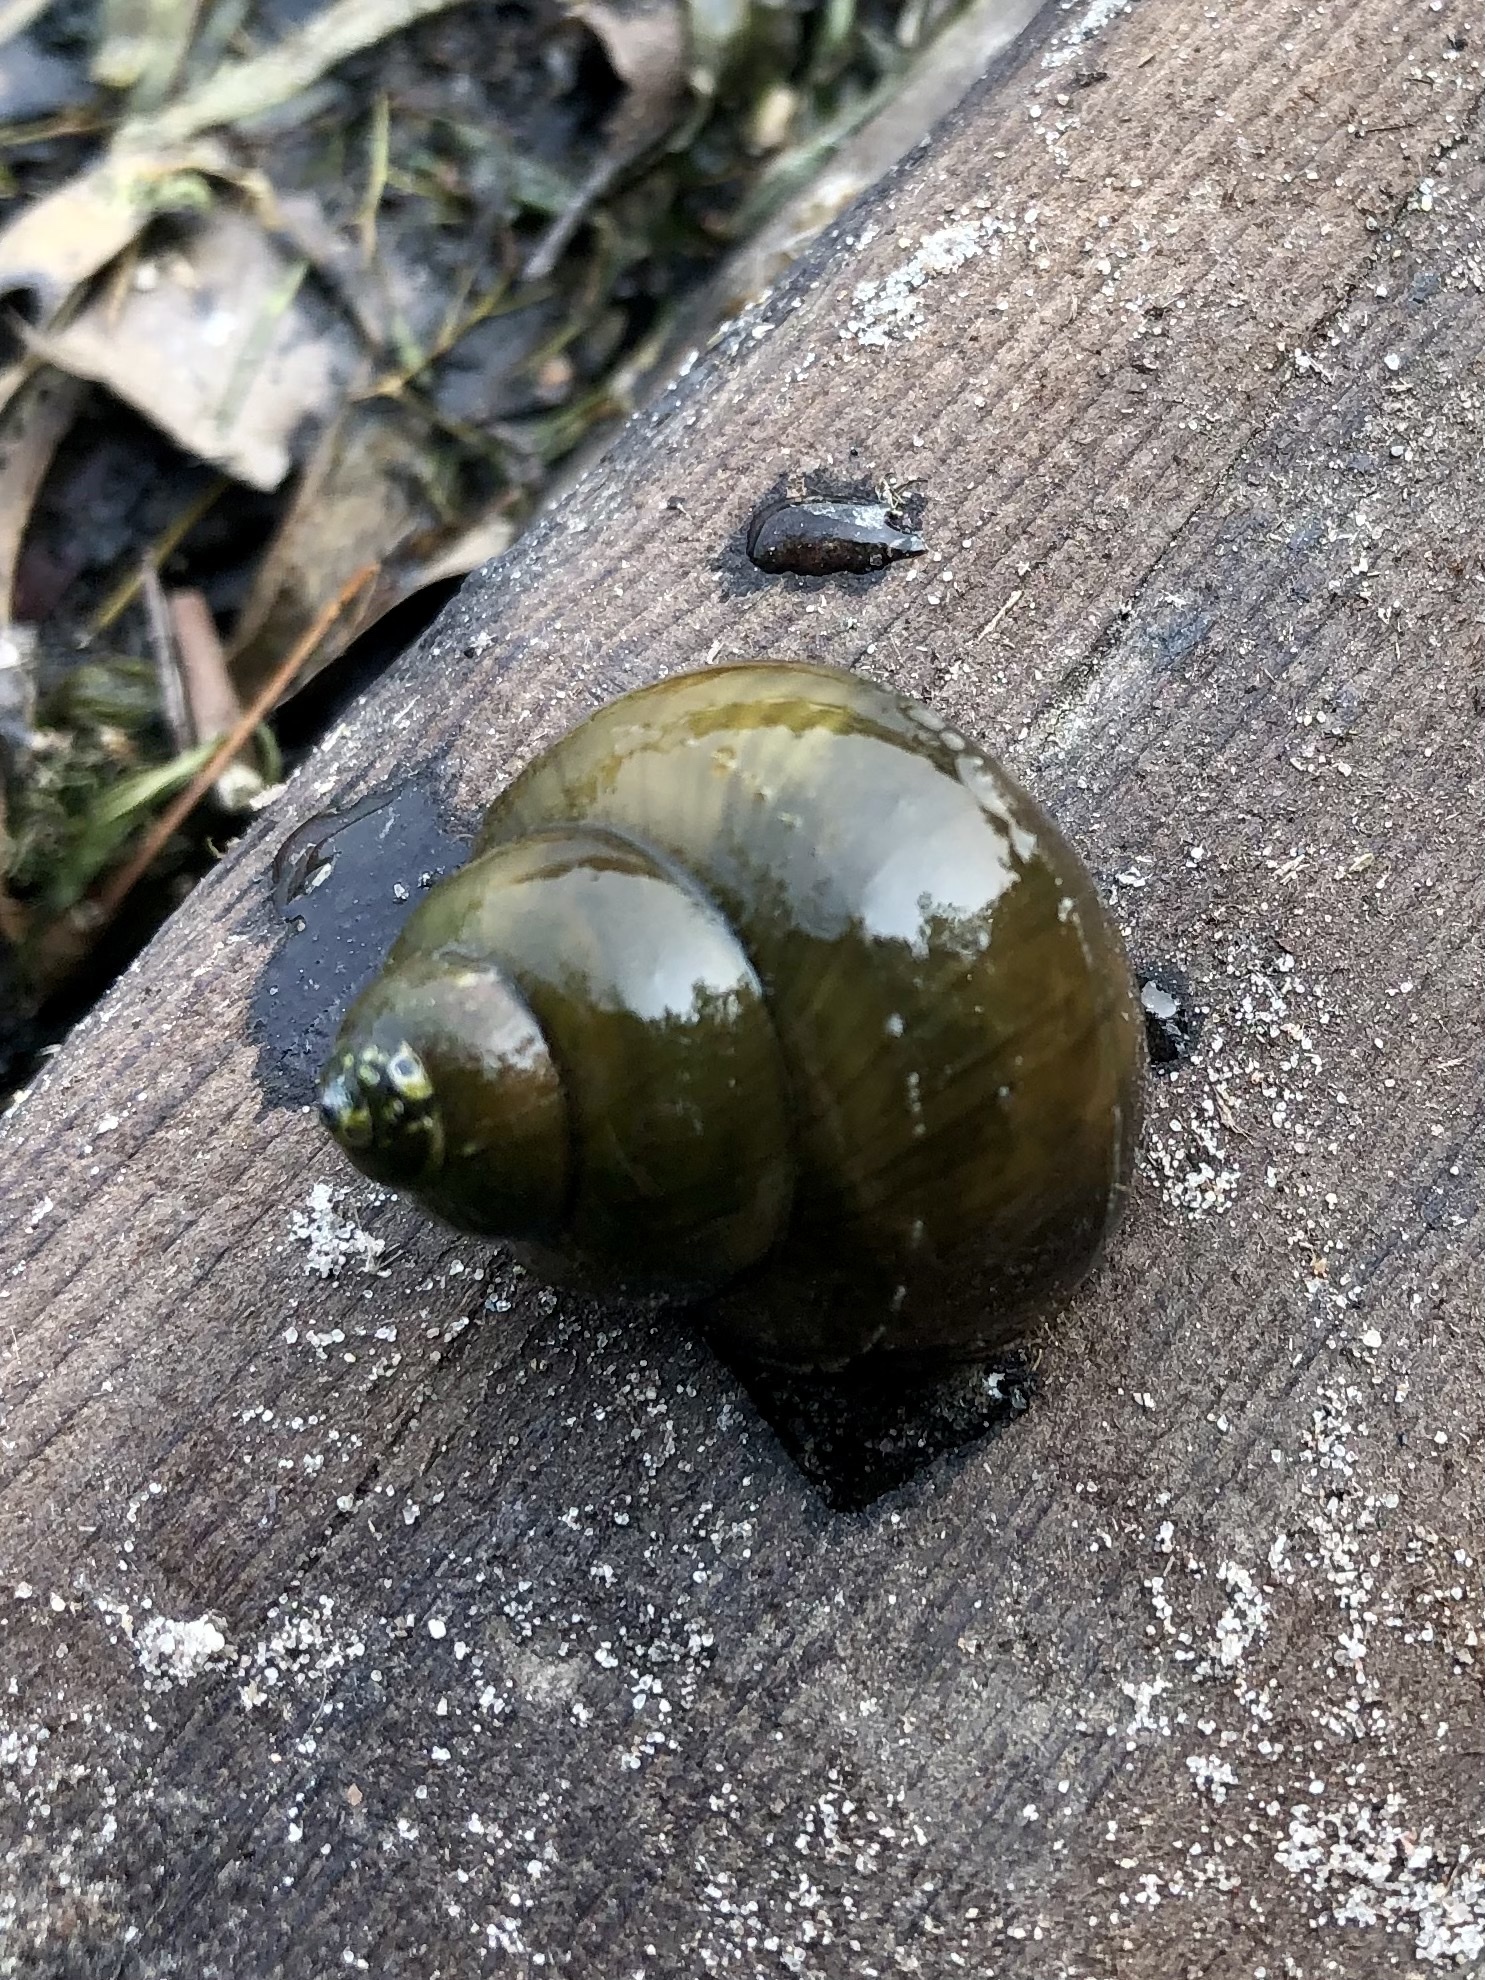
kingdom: Animalia
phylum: Mollusca
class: Gastropoda
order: Architaenioglossa
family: Viviparidae
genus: Cipangopaludina
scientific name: Cipangopaludina chinensis
